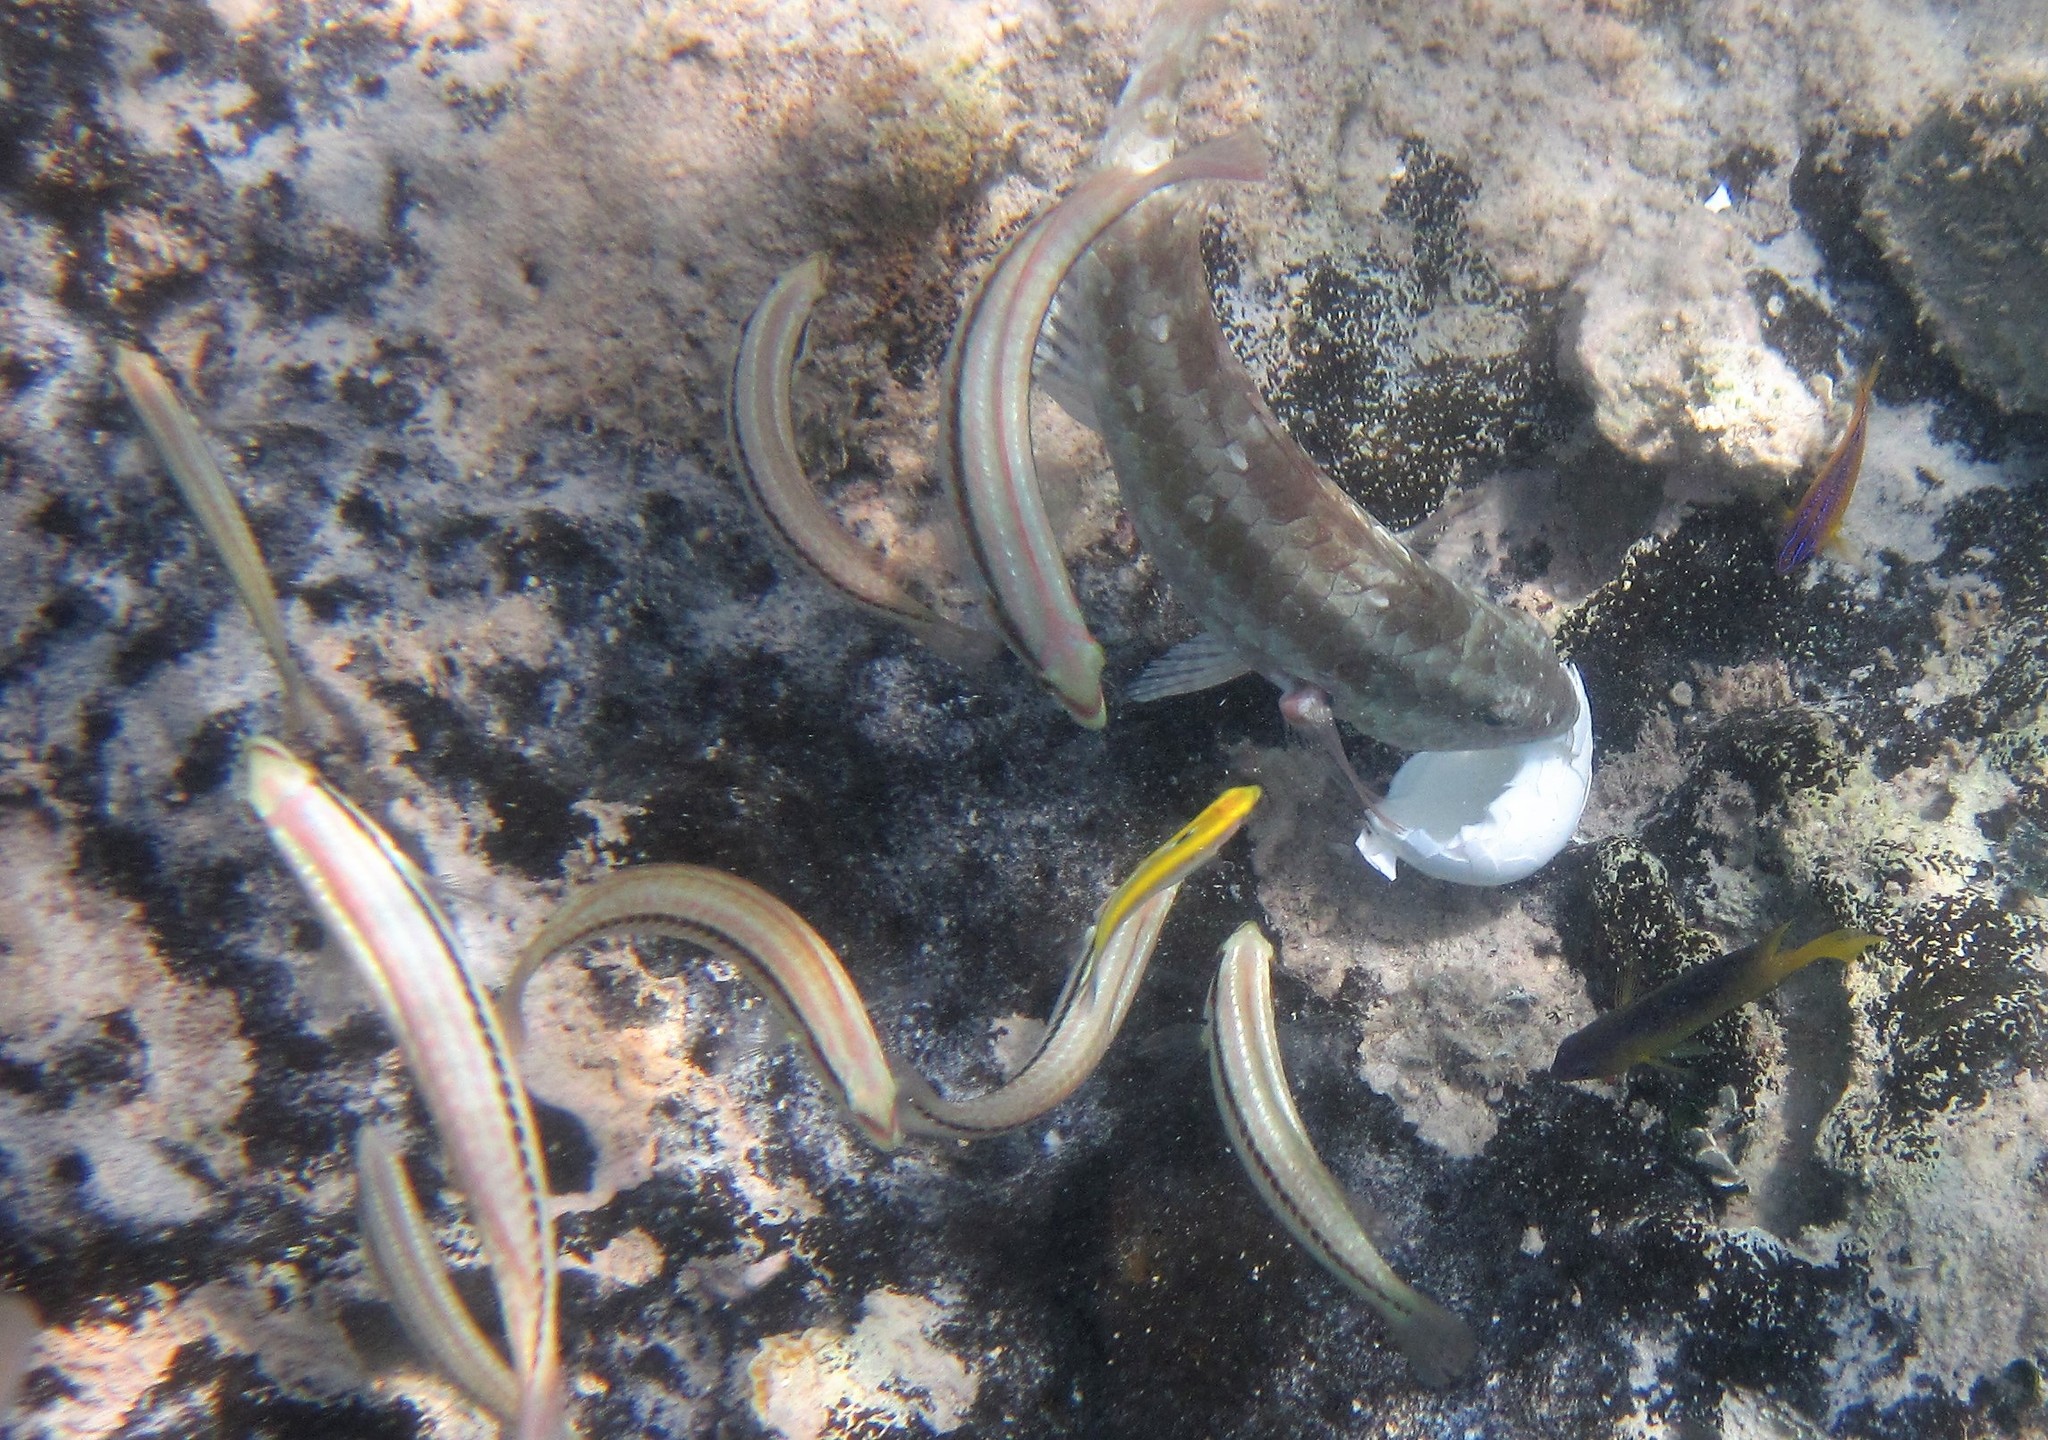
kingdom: Animalia
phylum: Chordata
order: Perciformes
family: Scaridae
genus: Sparisoma
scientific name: Sparisoma chrysopterum
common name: Redtail parrotfish
